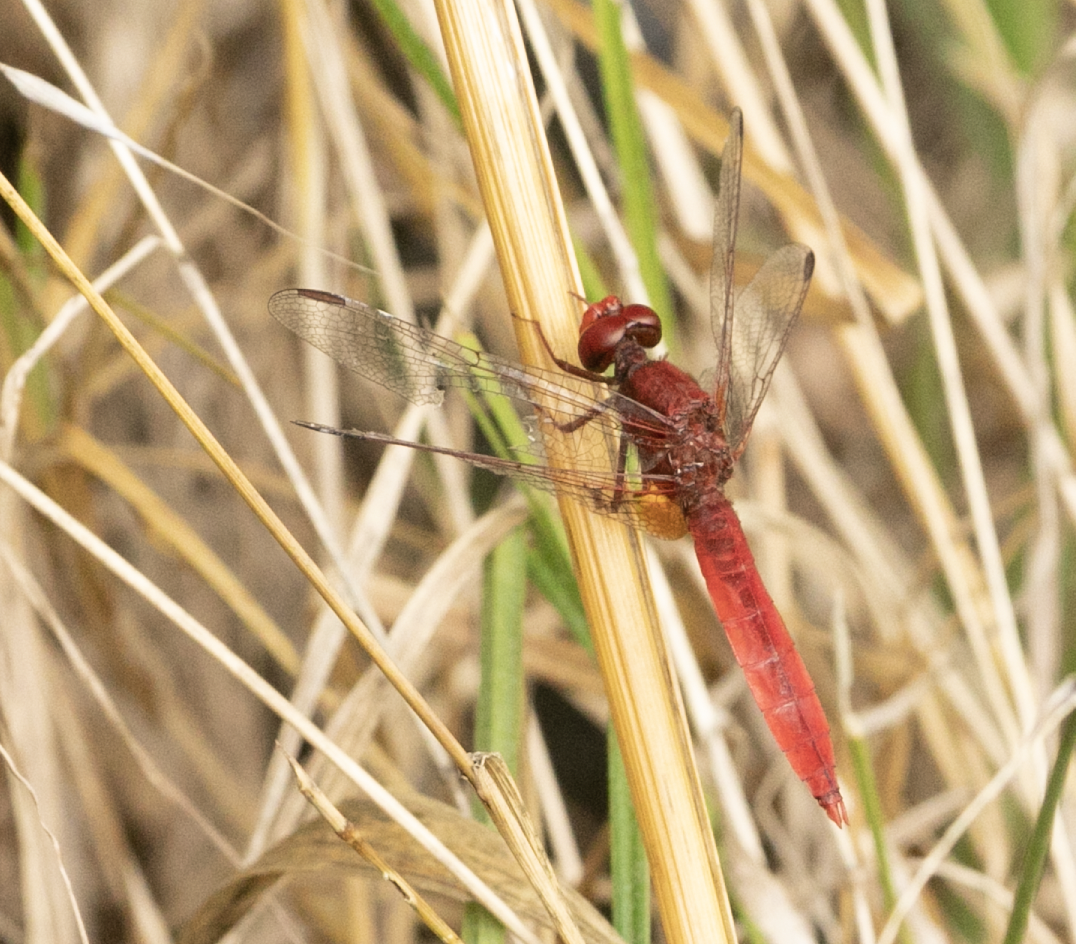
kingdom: Animalia
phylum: Arthropoda
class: Insecta
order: Odonata
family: Libellulidae
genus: Crocothemis
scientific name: Crocothemis erythraea
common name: Scarlet dragonfly
